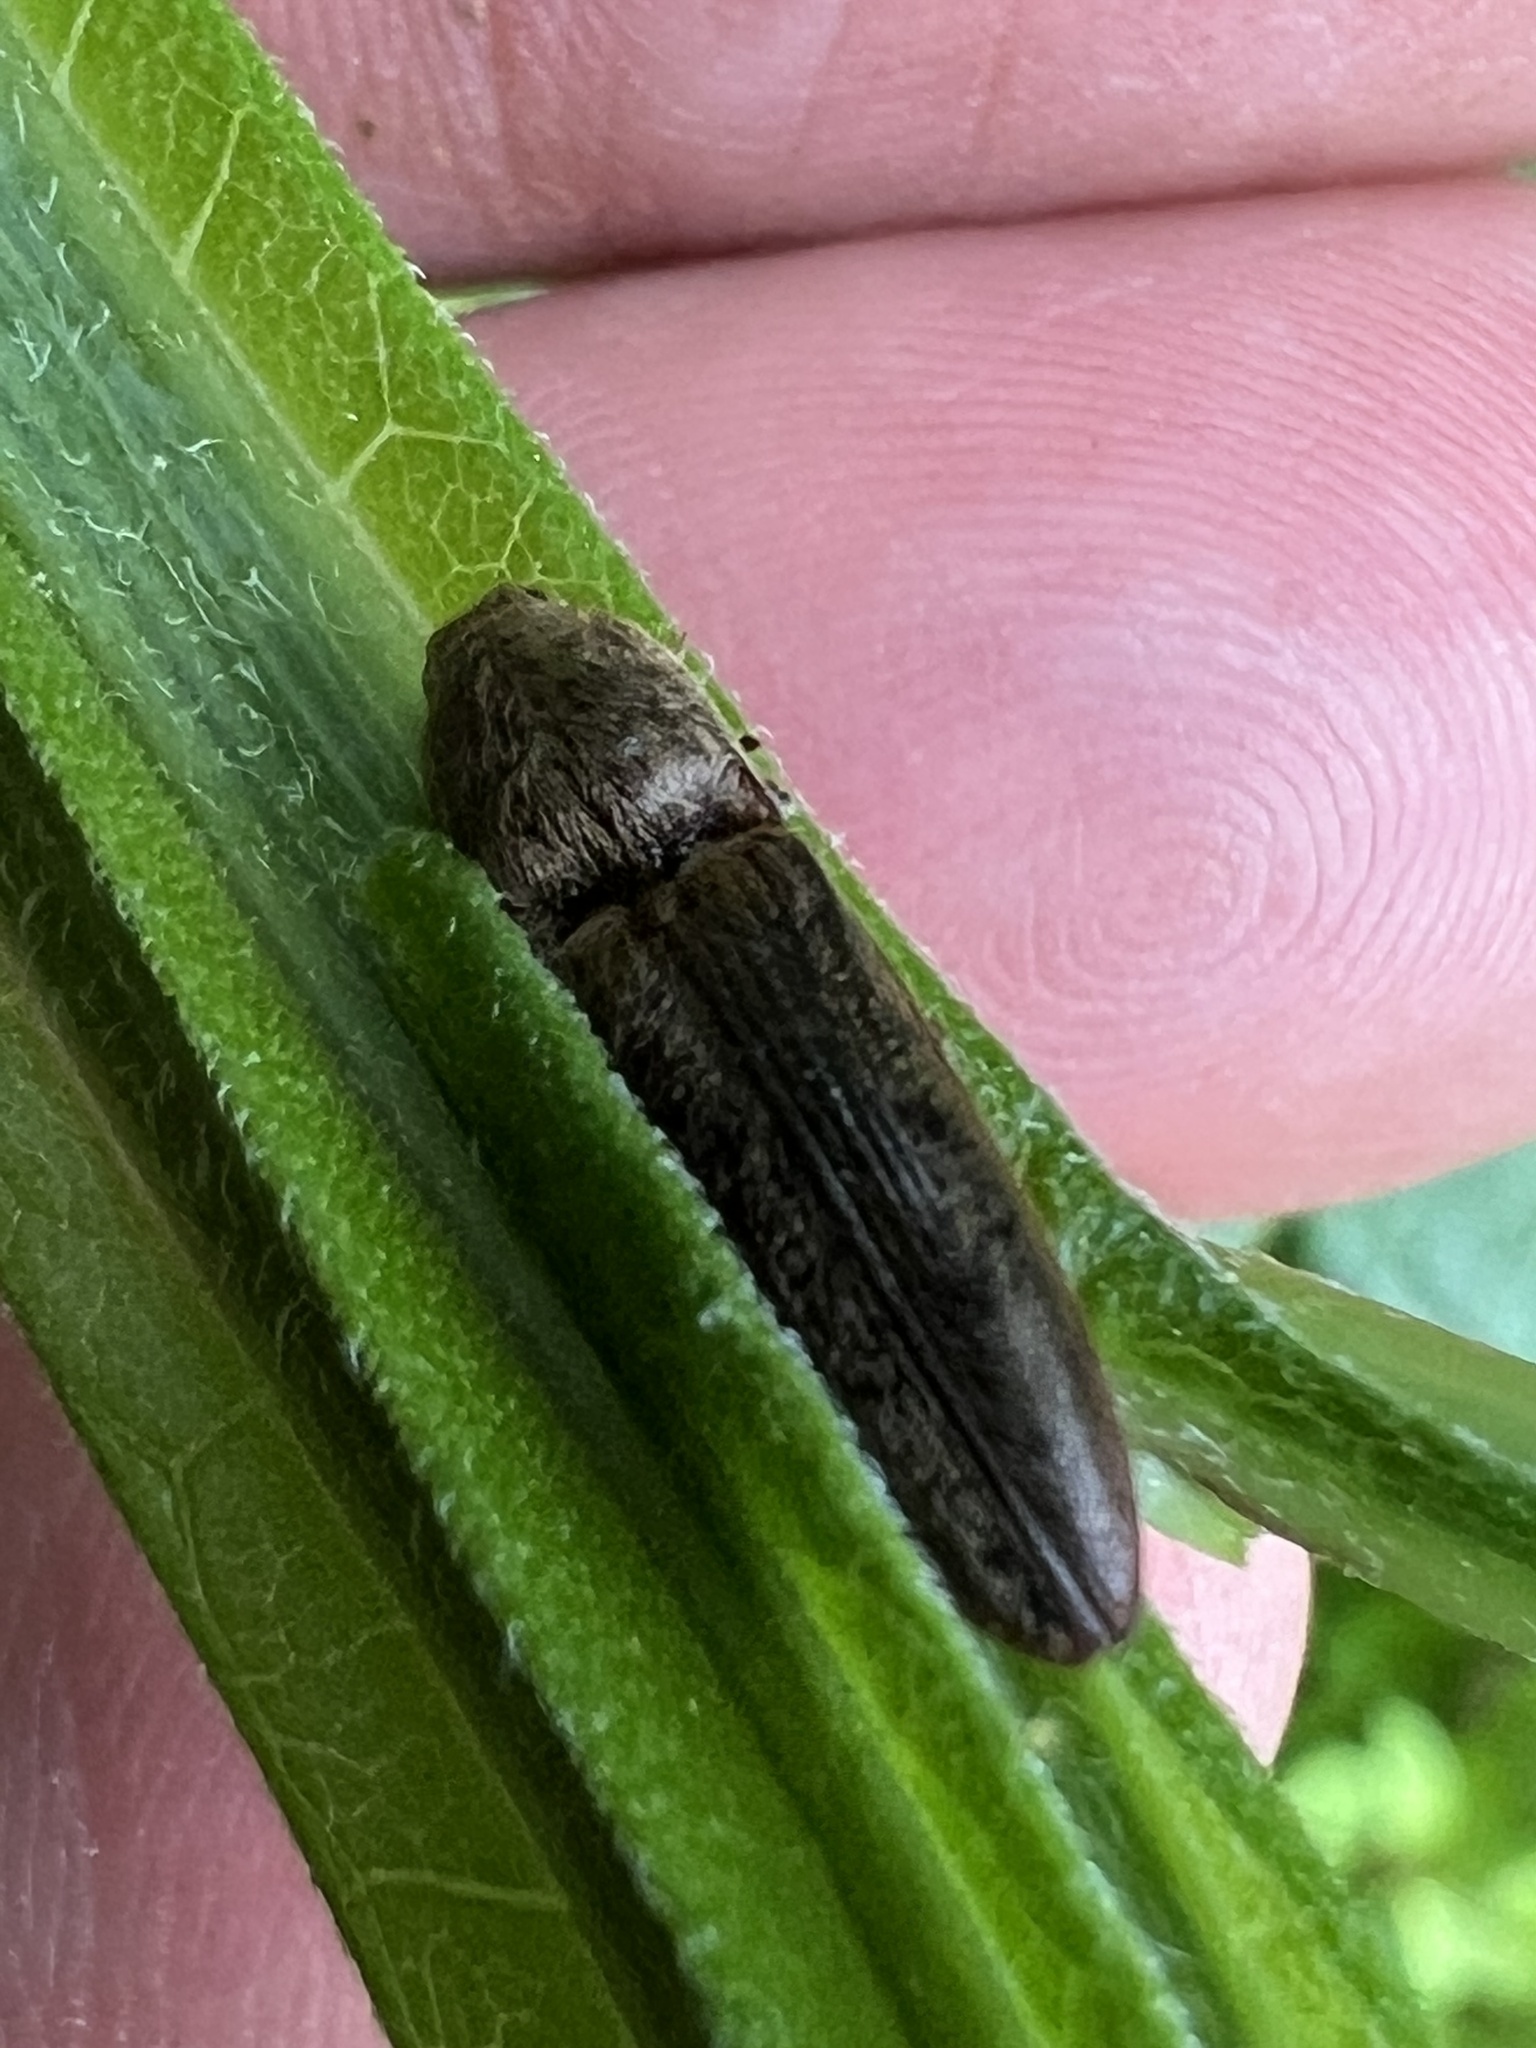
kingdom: Animalia
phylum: Arthropoda
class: Insecta
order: Coleoptera
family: Elateridae
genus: Gambrinus
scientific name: Gambrinus griseus
